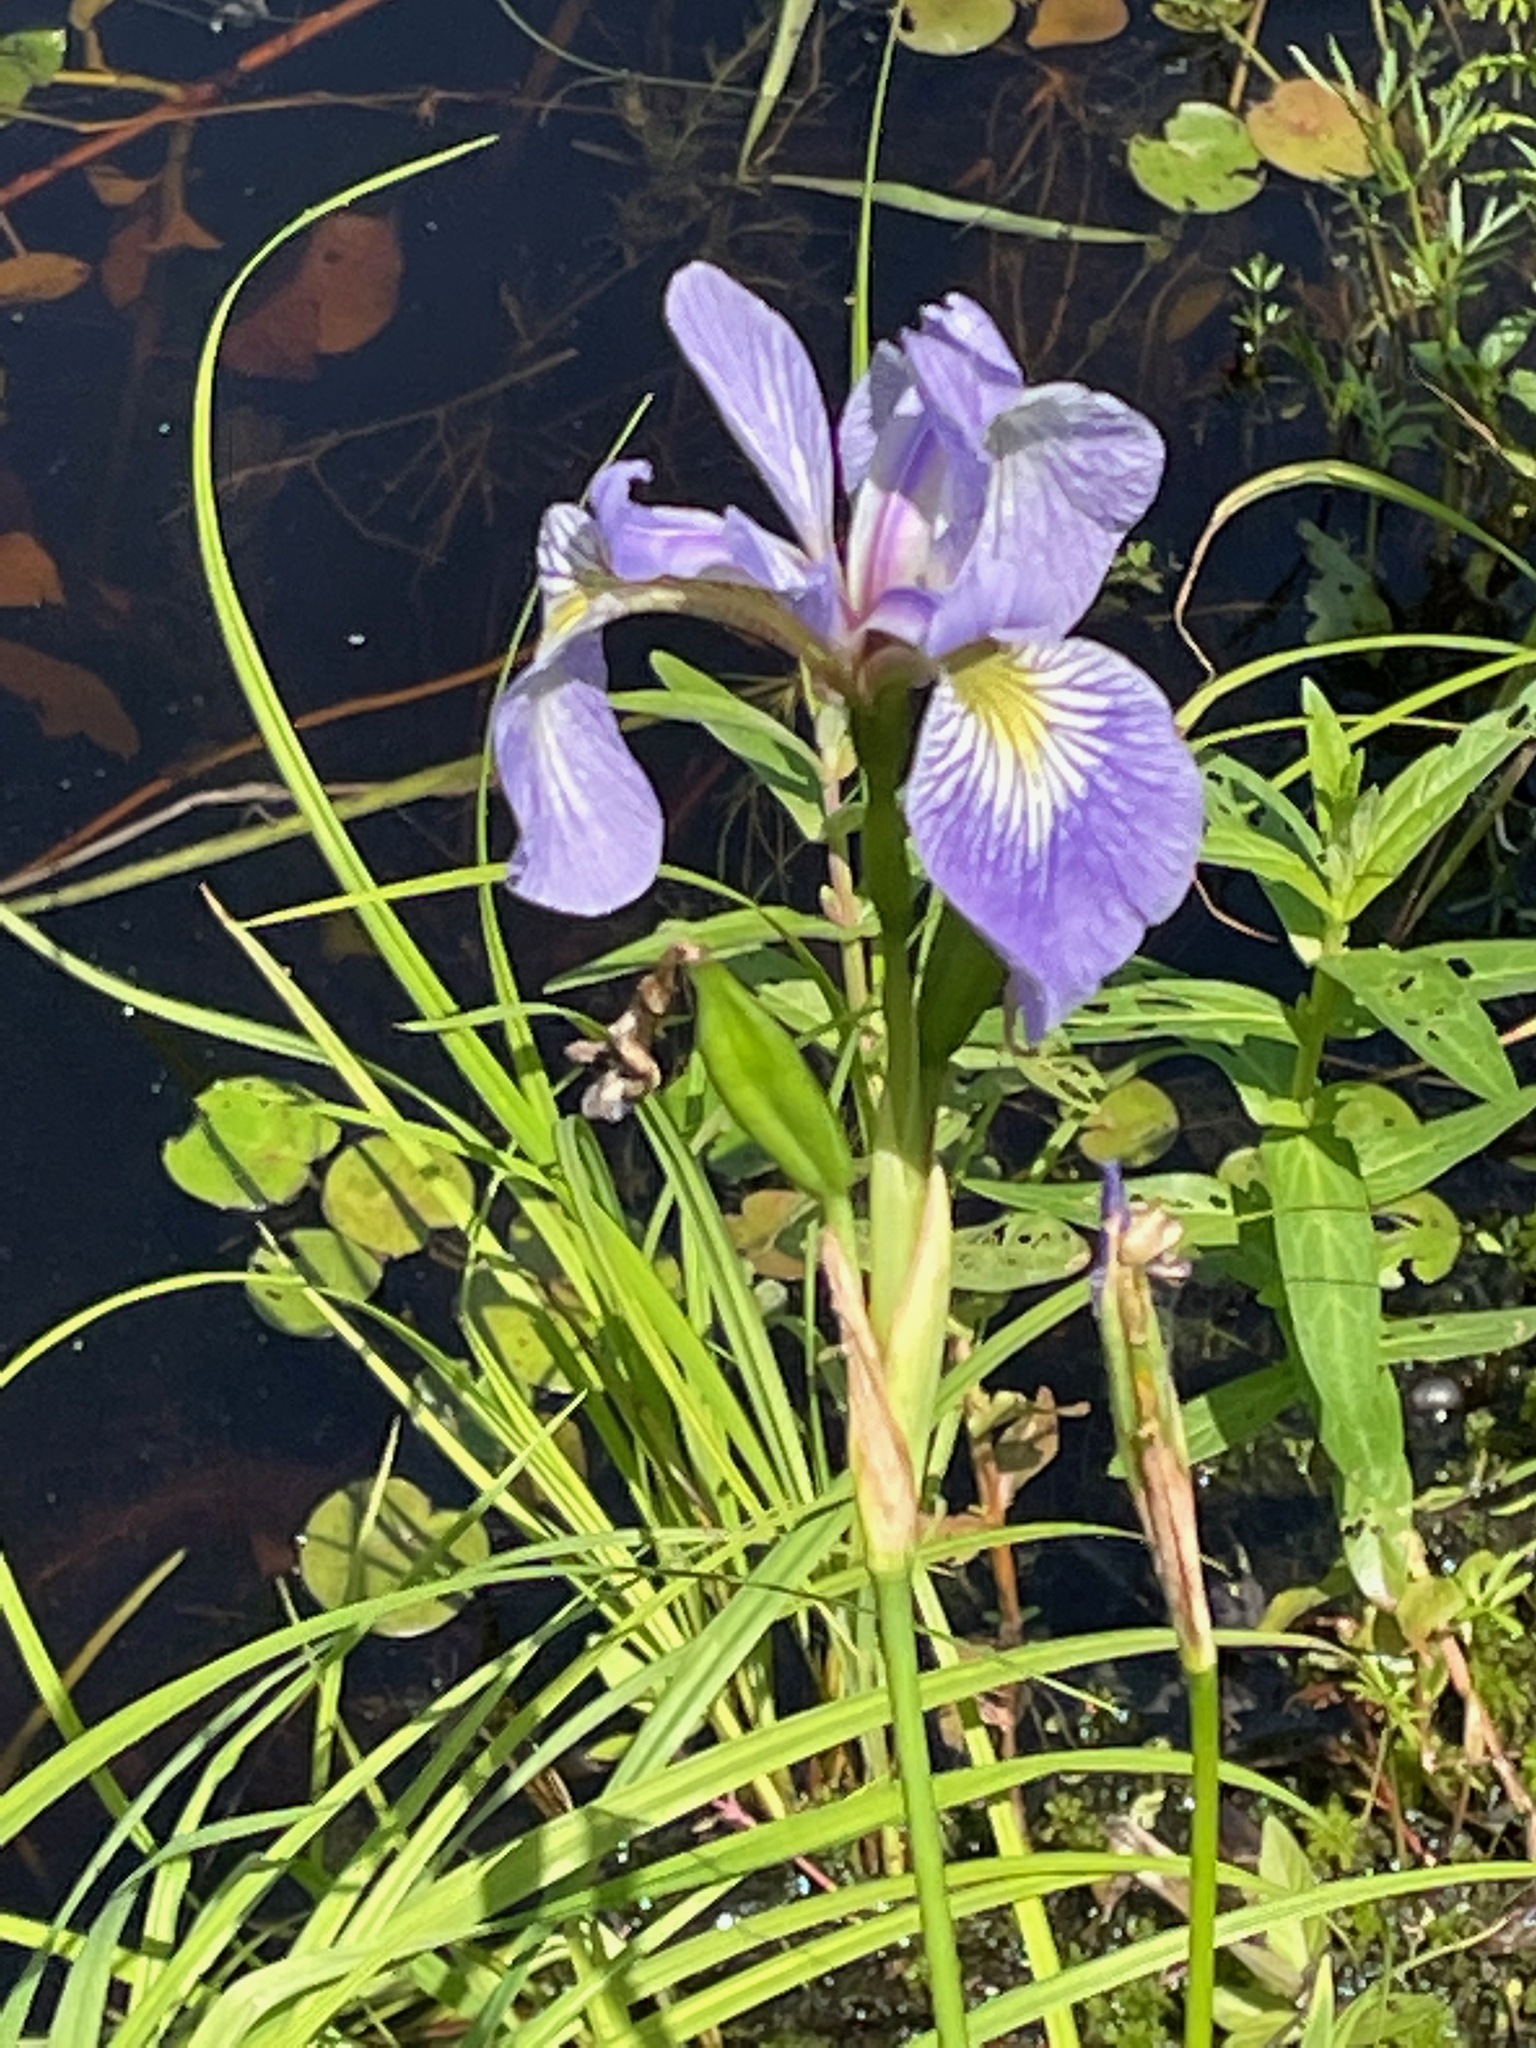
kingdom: Plantae
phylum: Tracheophyta
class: Liliopsida
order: Asparagales
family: Iridaceae
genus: Iris
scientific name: Iris versicolor
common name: Purple iris
